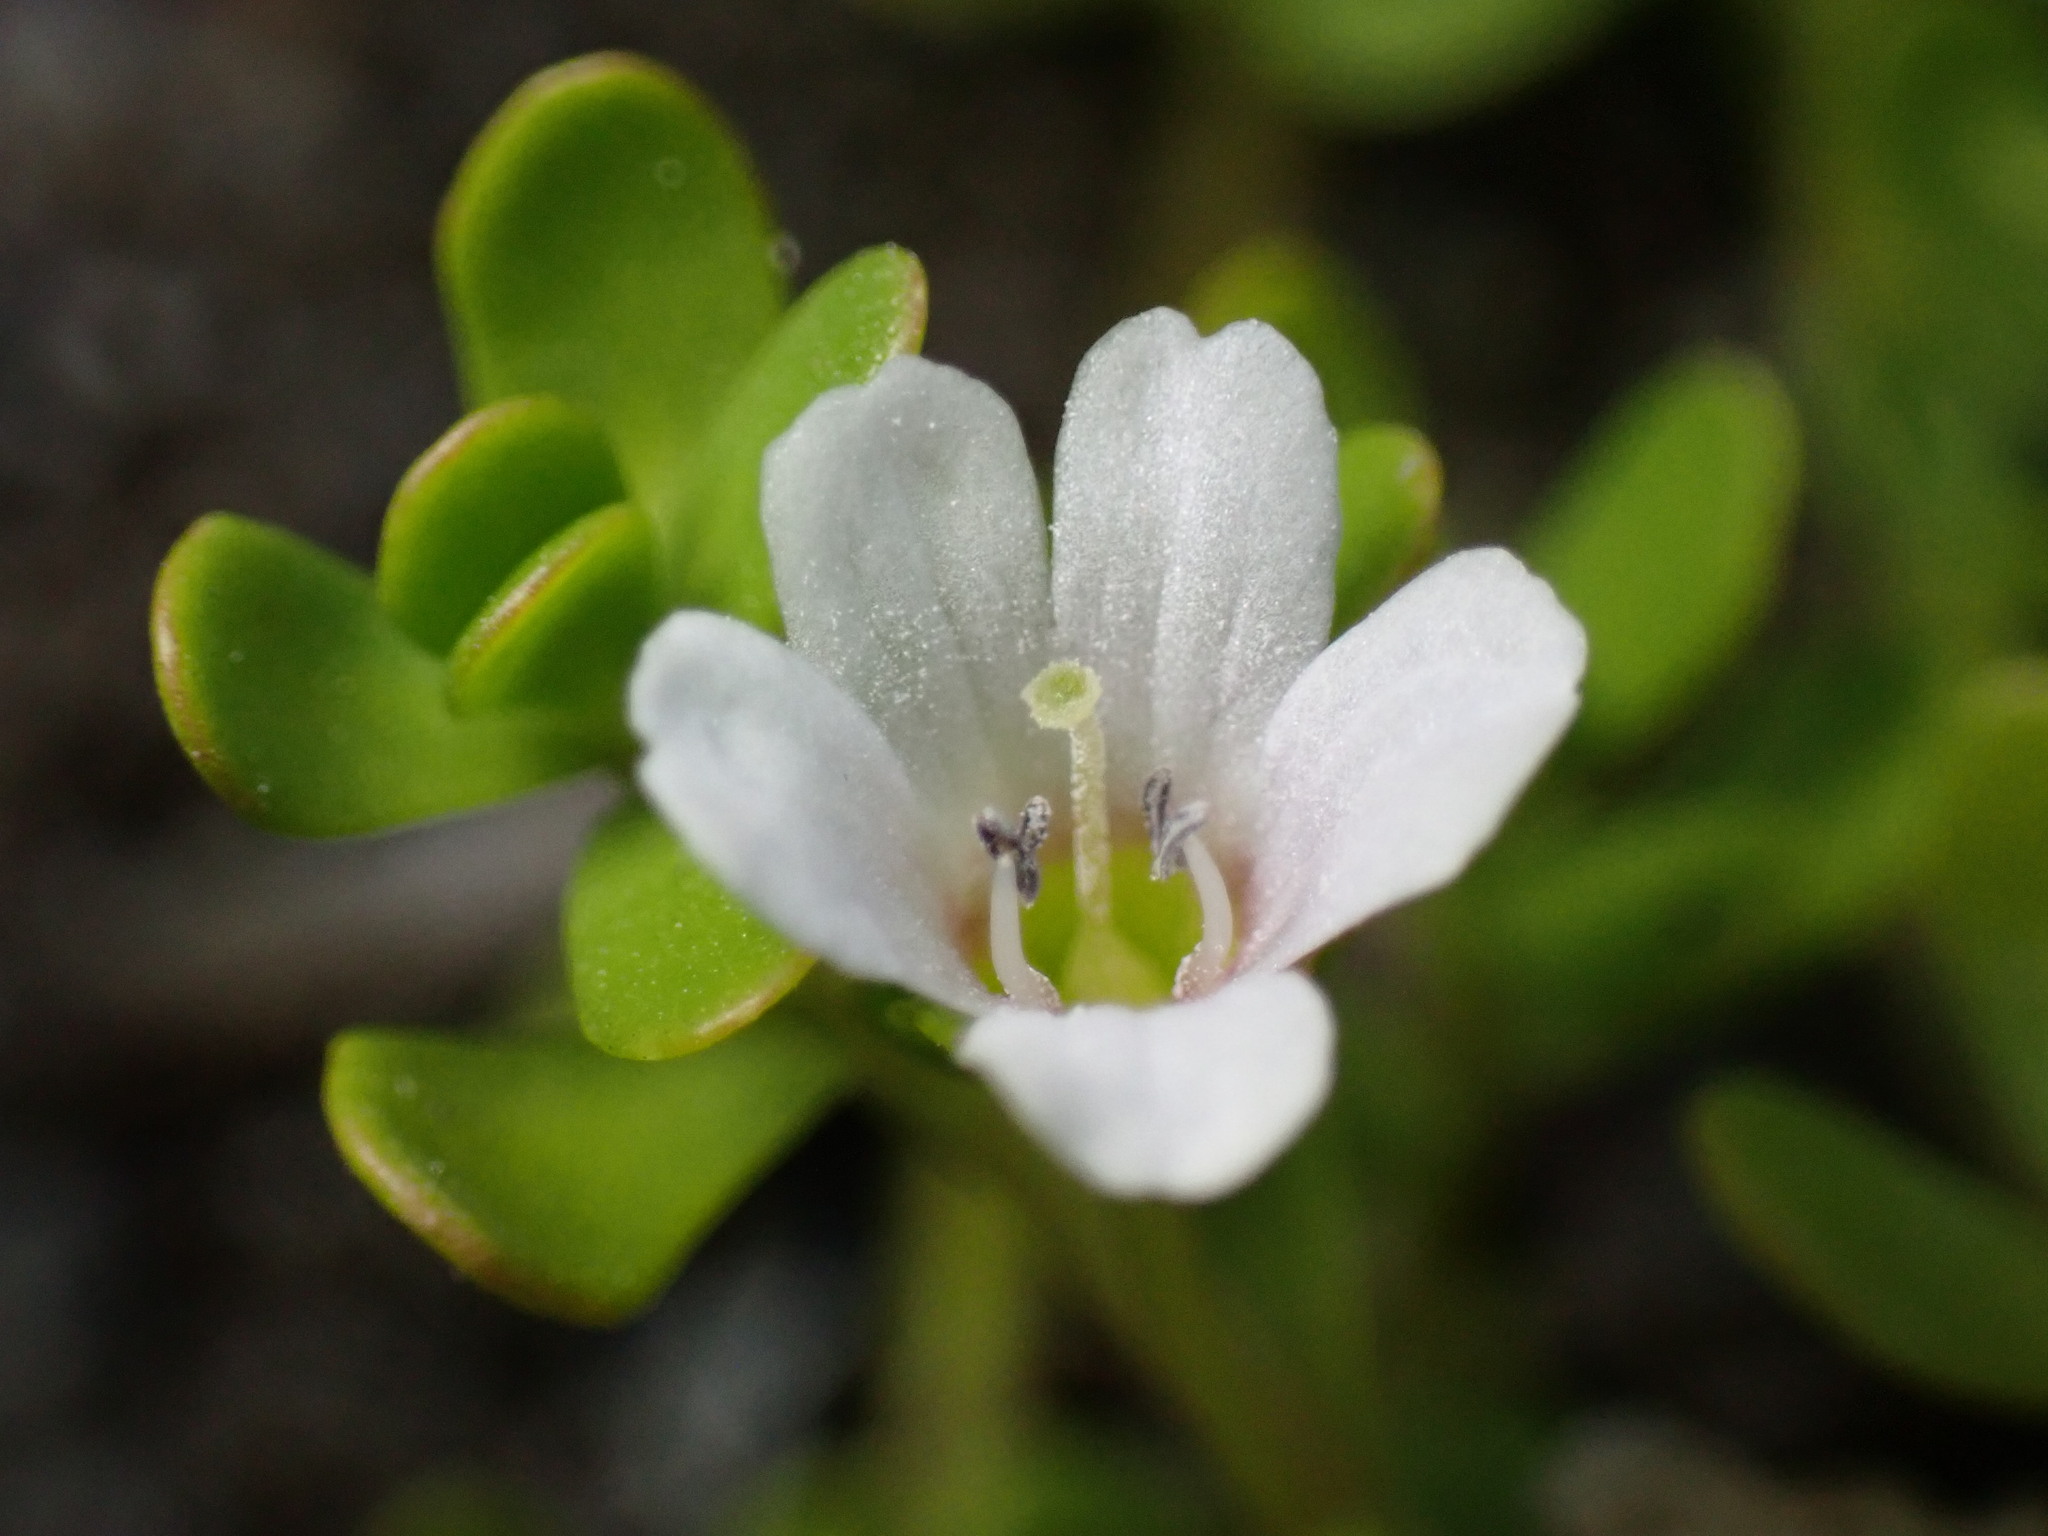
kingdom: Plantae
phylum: Tracheophyta
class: Magnoliopsida
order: Lamiales
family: Plantaginaceae
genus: Bacopa
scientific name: Bacopa monnieri
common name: Indian-pennywort
